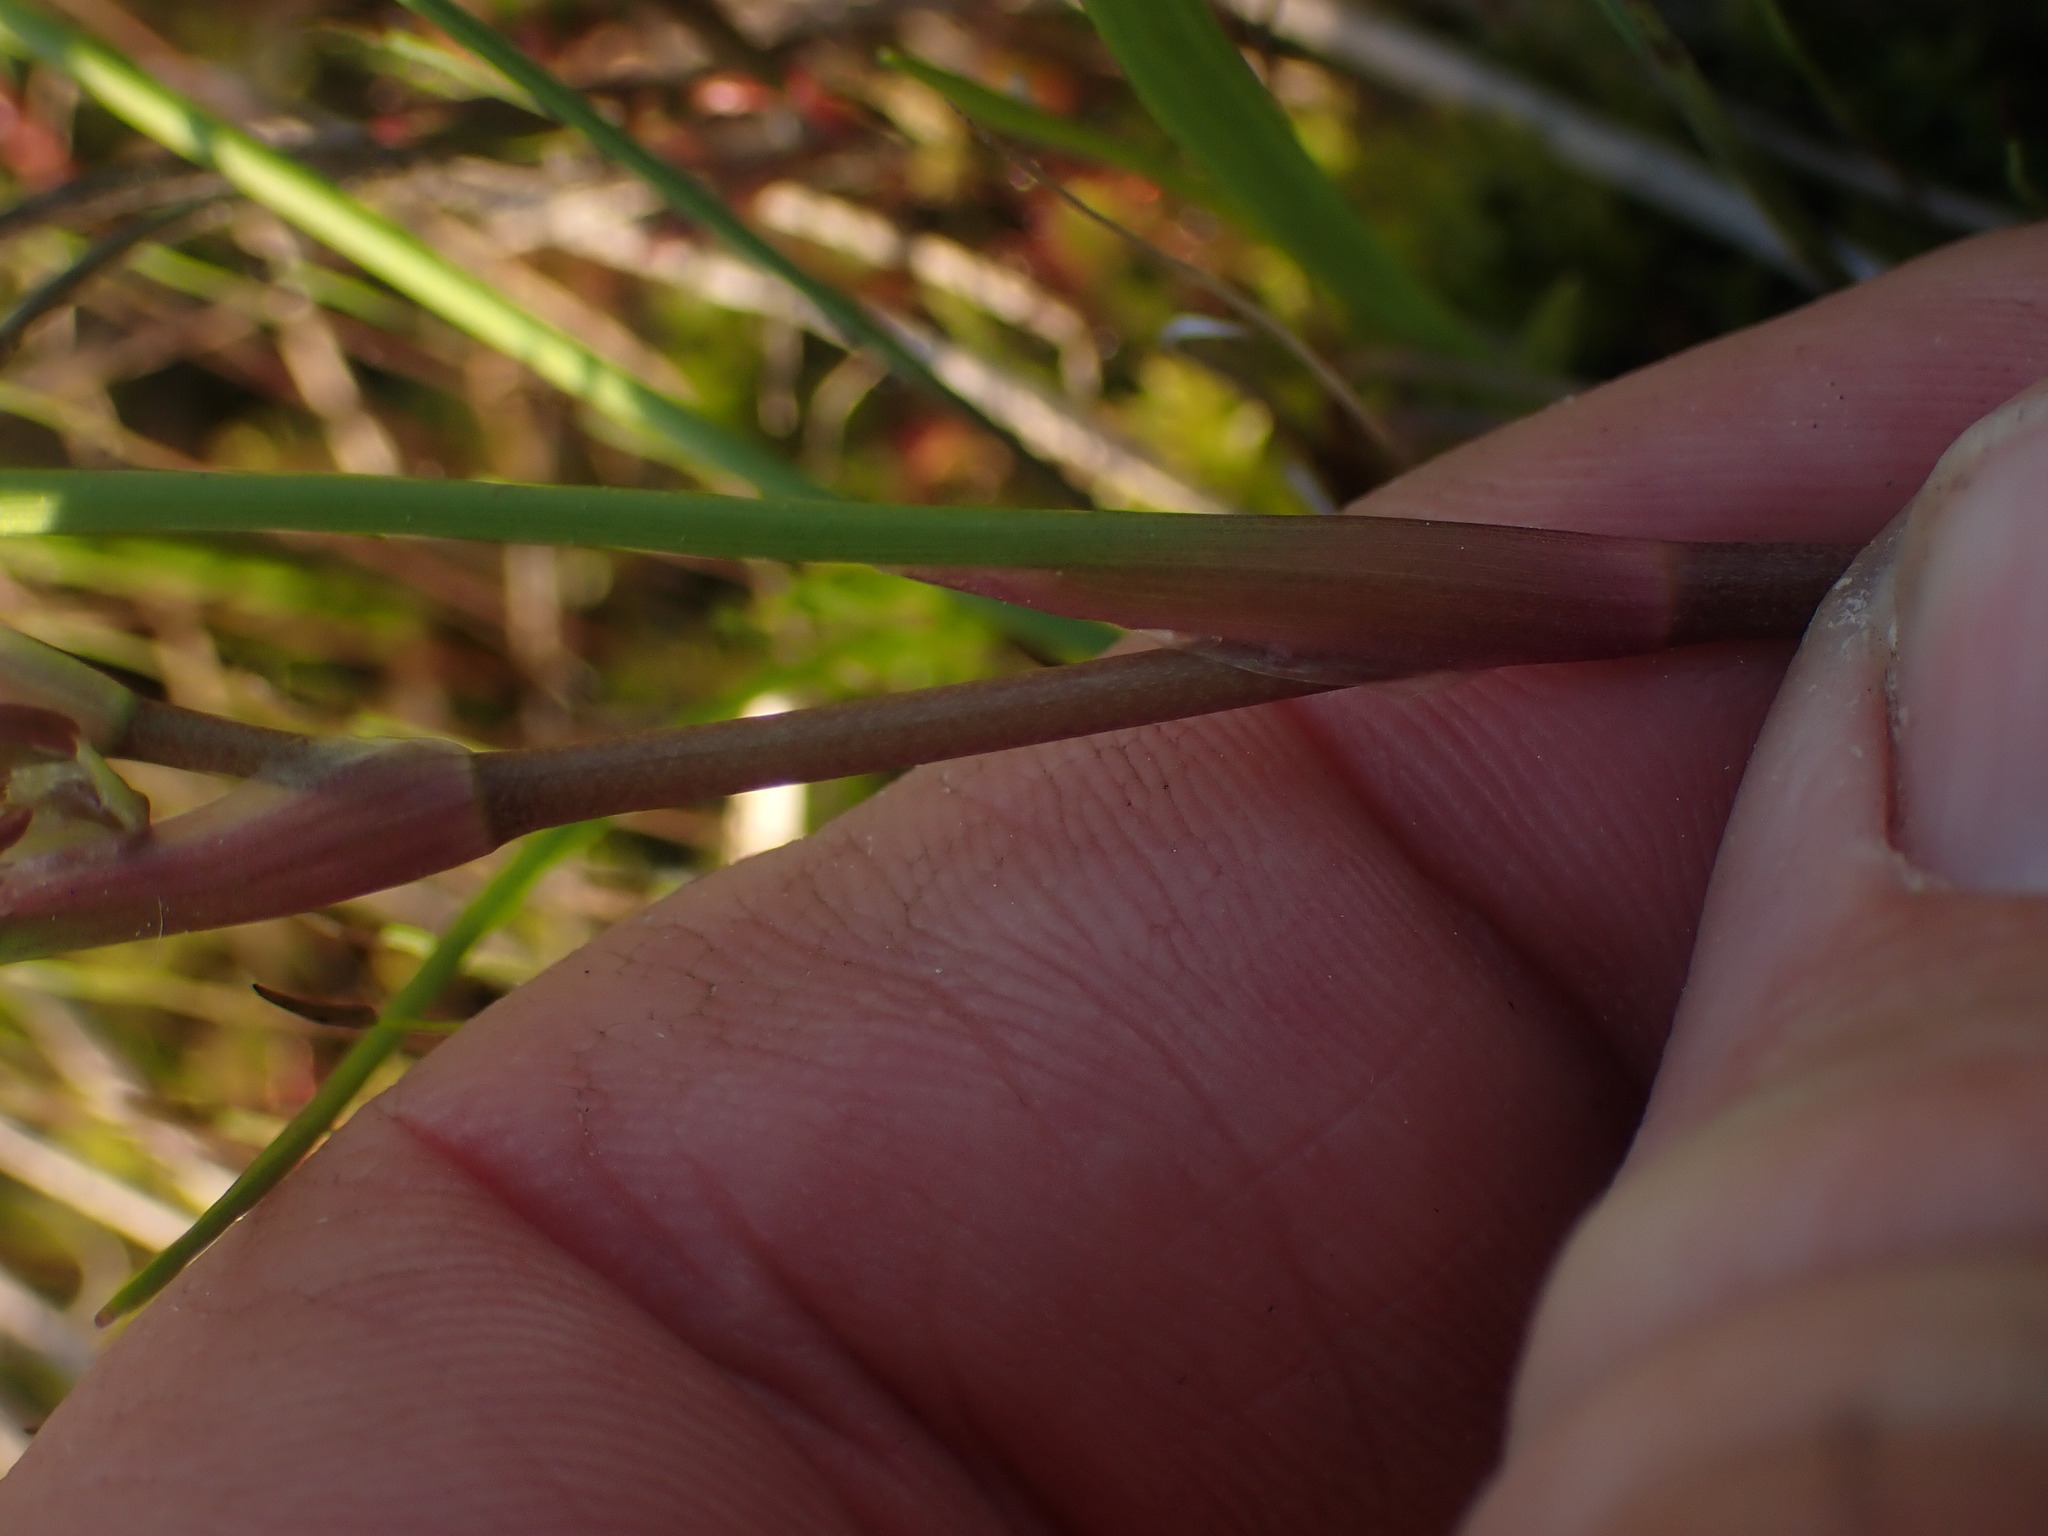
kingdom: Plantae
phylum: Tracheophyta
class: Liliopsida
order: Alismatales
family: Scheuchzeriaceae
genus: Scheuchzeria
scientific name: Scheuchzeria palustris
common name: Rannoch-rush
